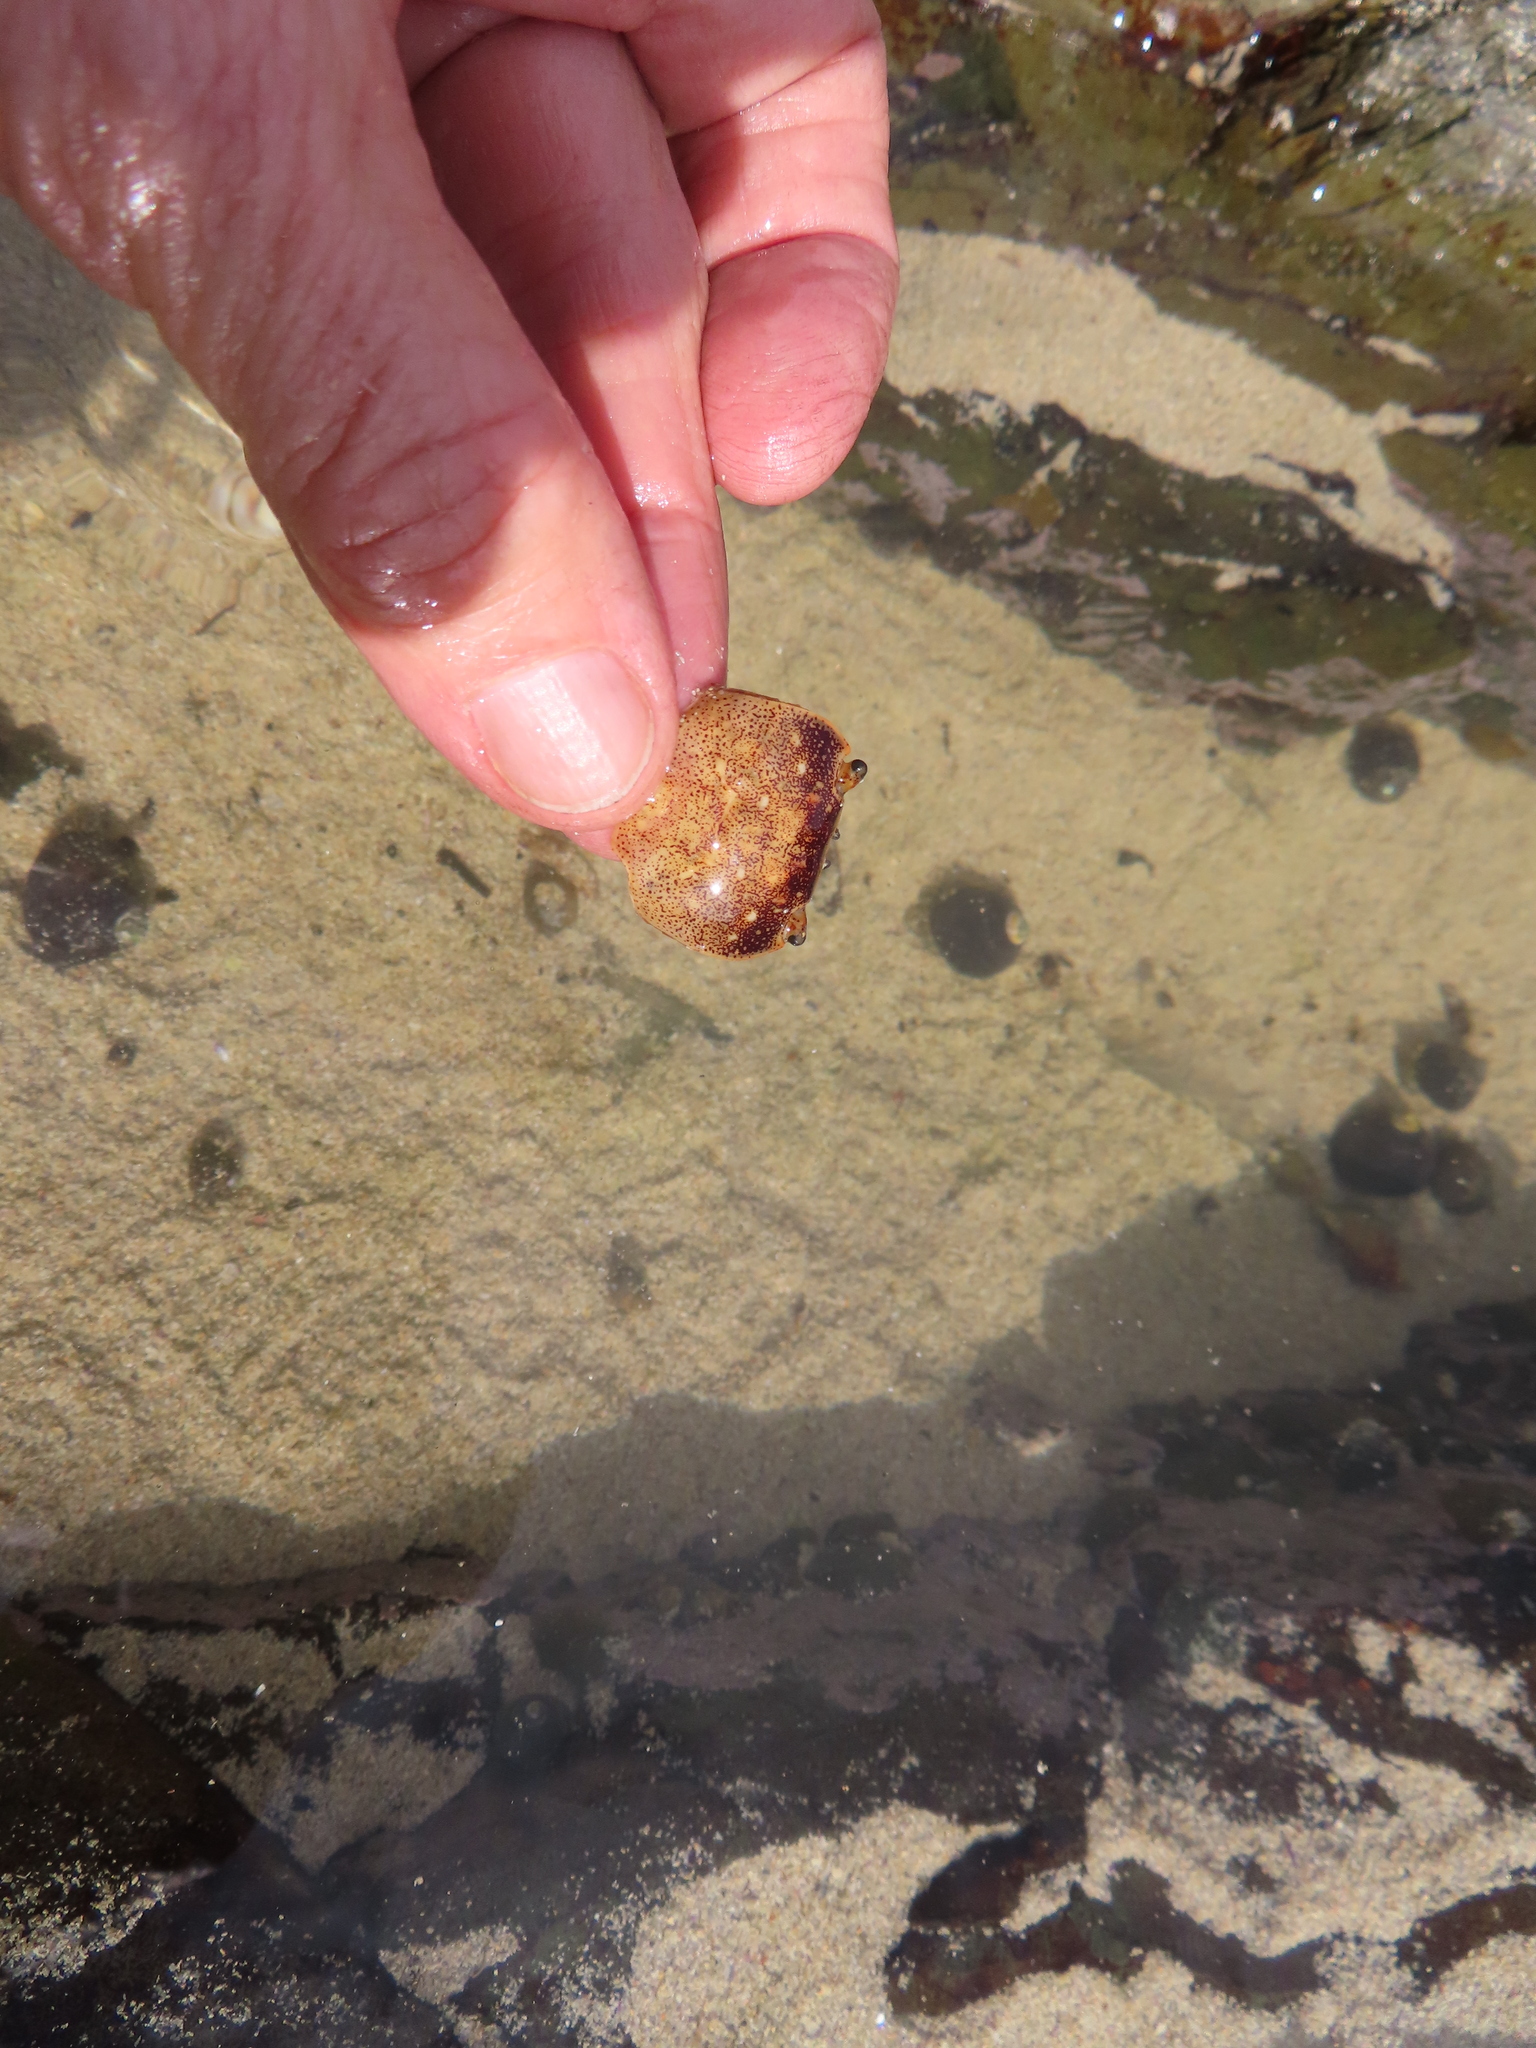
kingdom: Animalia
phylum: Arthropoda
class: Malacostraca
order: Decapoda
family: Varunidae
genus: Cyclograpsus
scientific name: Cyclograpsus punctatus
